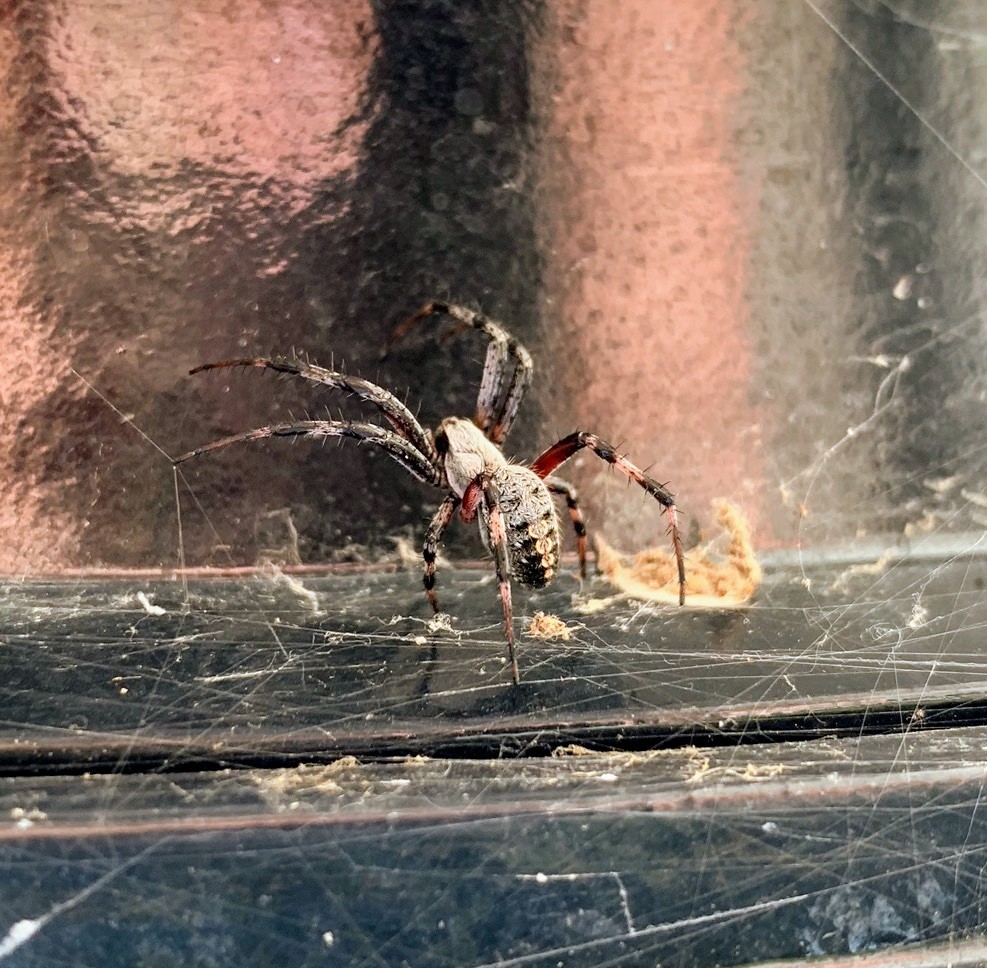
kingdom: Animalia
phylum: Arthropoda
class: Arachnida
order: Araneae
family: Araneidae
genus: Neoscona
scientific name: Neoscona oaxacensis
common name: Orb weavers
